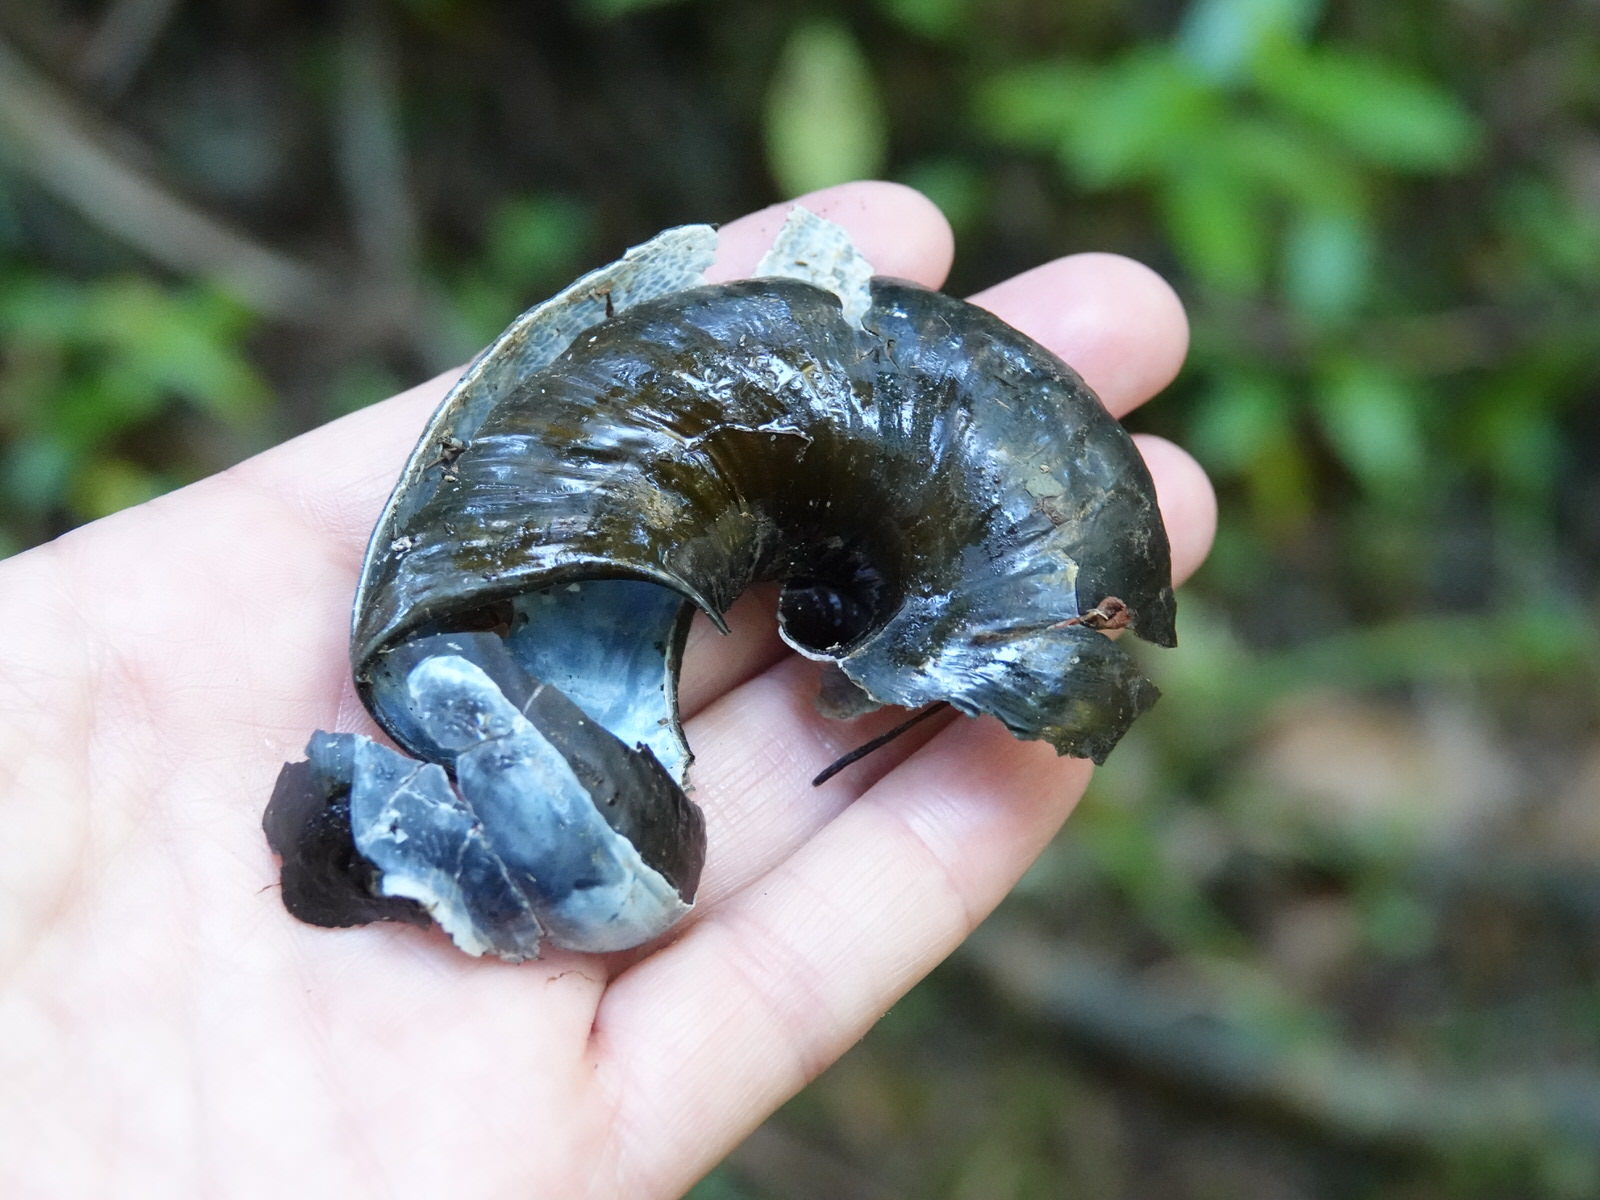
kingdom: Animalia
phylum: Mollusca
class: Gastropoda
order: Stylommatophora
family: Rhytididae
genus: Paryphanta
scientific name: Paryphanta busbyi
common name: Kauri snail
